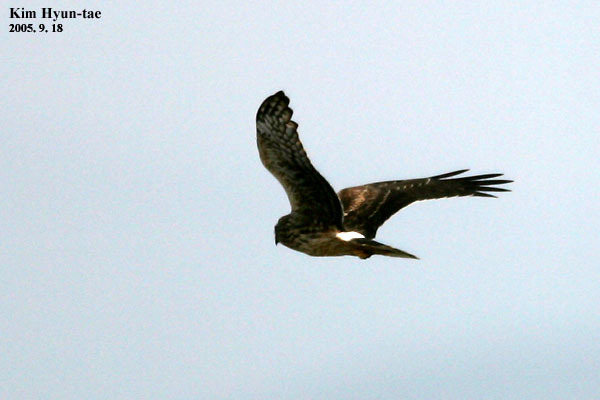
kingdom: Animalia
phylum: Chordata
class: Aves
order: Accipitriformes
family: Accipitridae
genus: Circus
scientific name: Circus cyaneus
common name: Hen harrier
